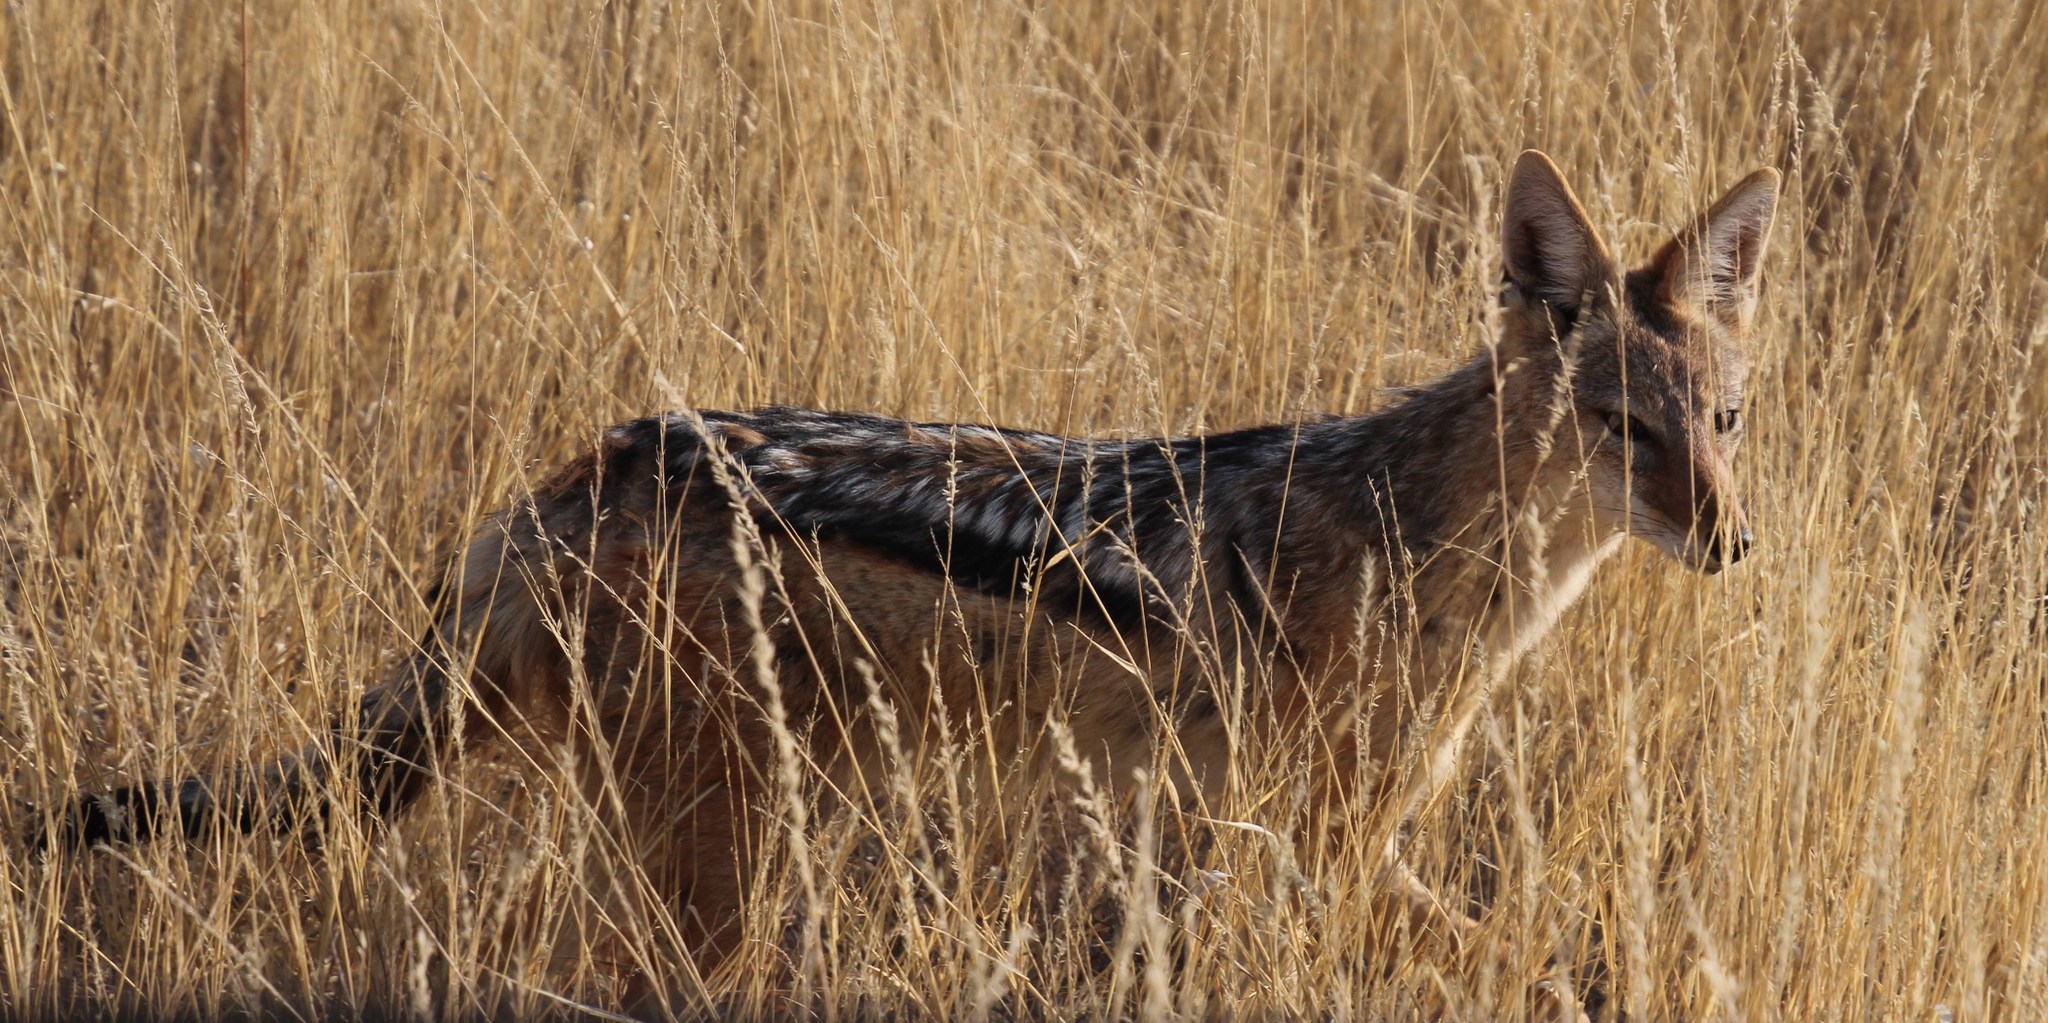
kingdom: Animalia
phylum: Chordata
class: Mammalia
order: Carnivora
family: Canidae
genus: Lupulella
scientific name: Lupulella
